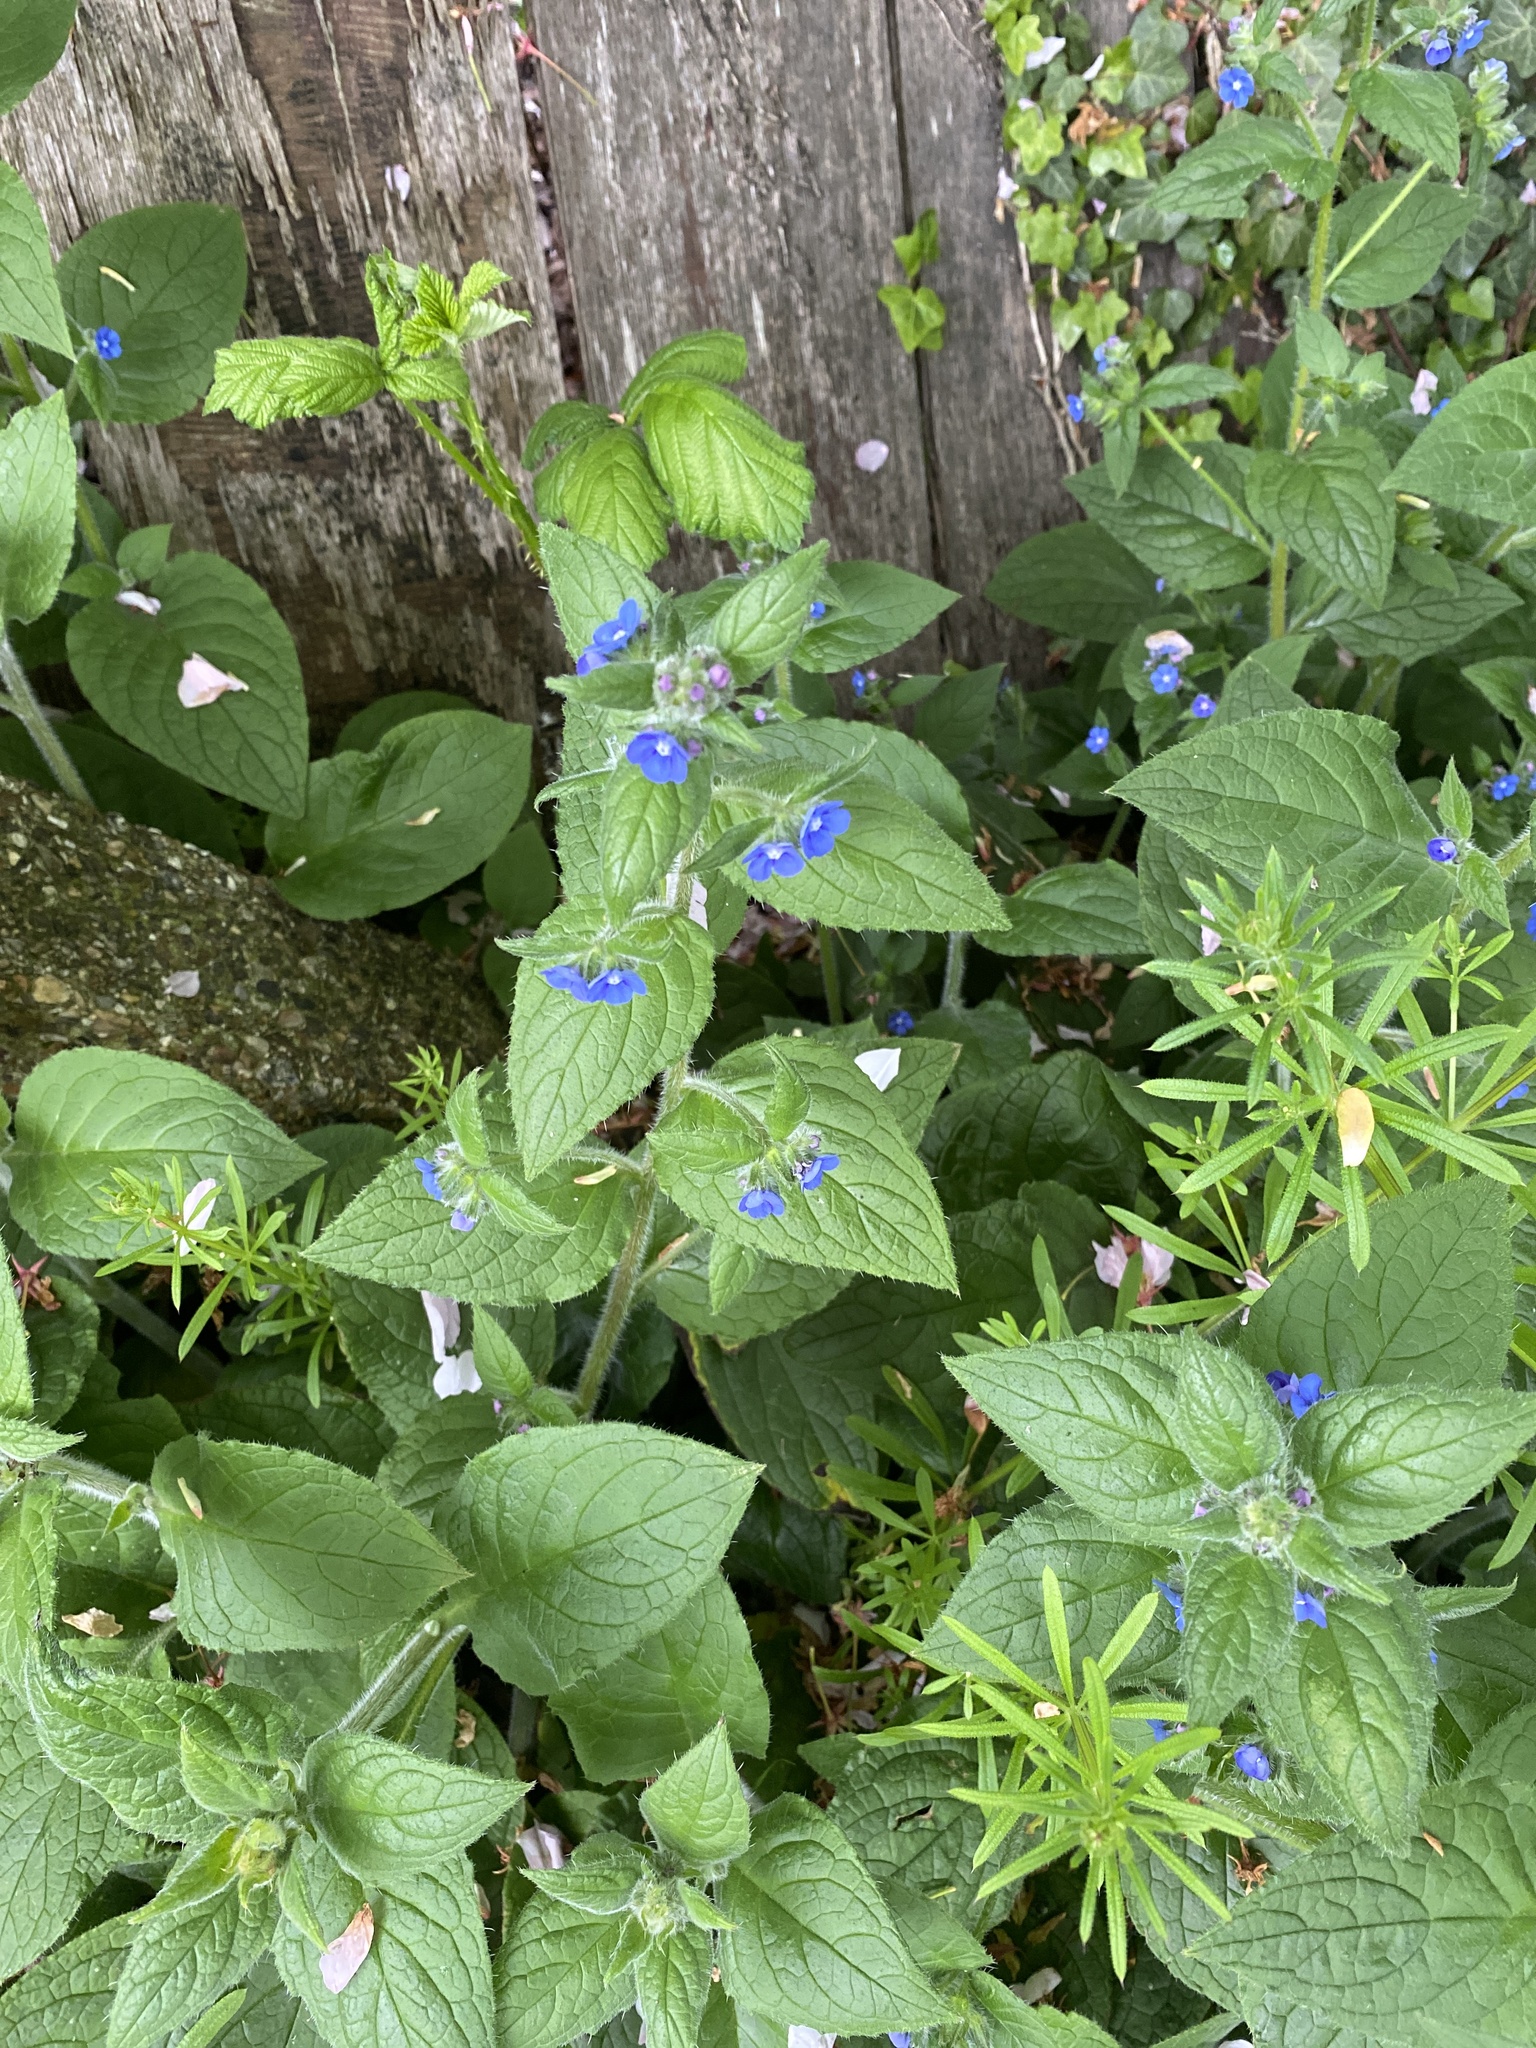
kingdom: Plantae
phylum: Tracheophyta
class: Magnoliopsida
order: Boraginales
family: Boraginaceae
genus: Pentaglottis
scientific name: Pentaglottis sempervirens
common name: Green alkanet
